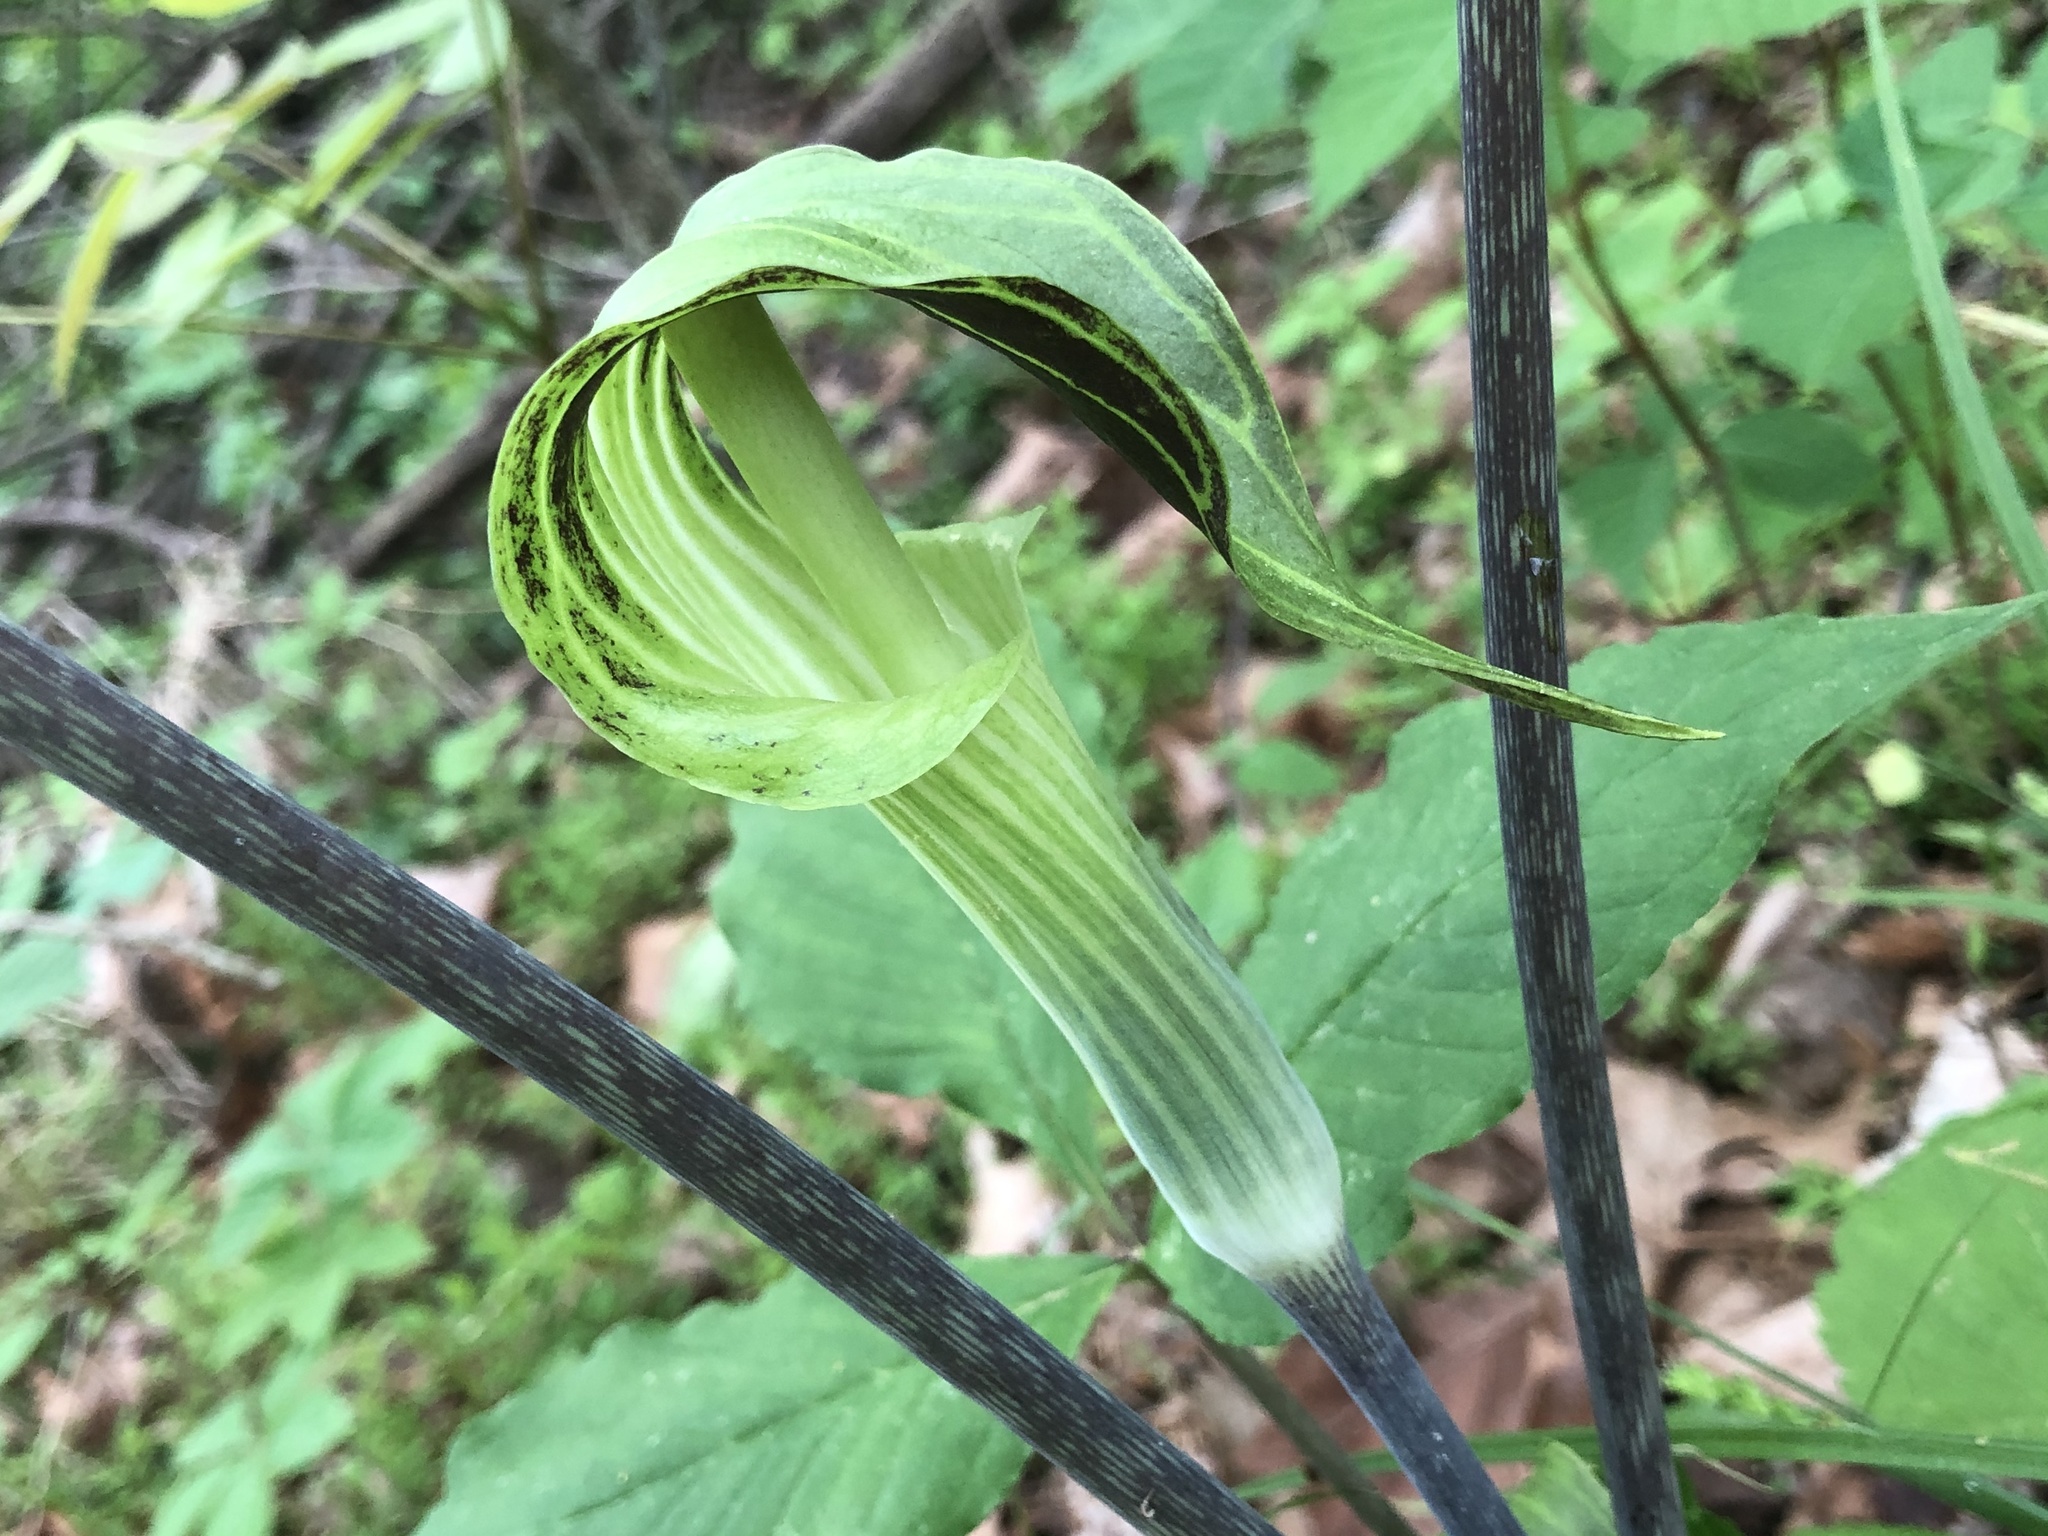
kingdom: Plantae
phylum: Tracheophyta
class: Liliopsida
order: Alismatales
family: Araceae
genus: Arisaema
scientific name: Arisaema triphyllum
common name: Jack-in-the-pulpit
